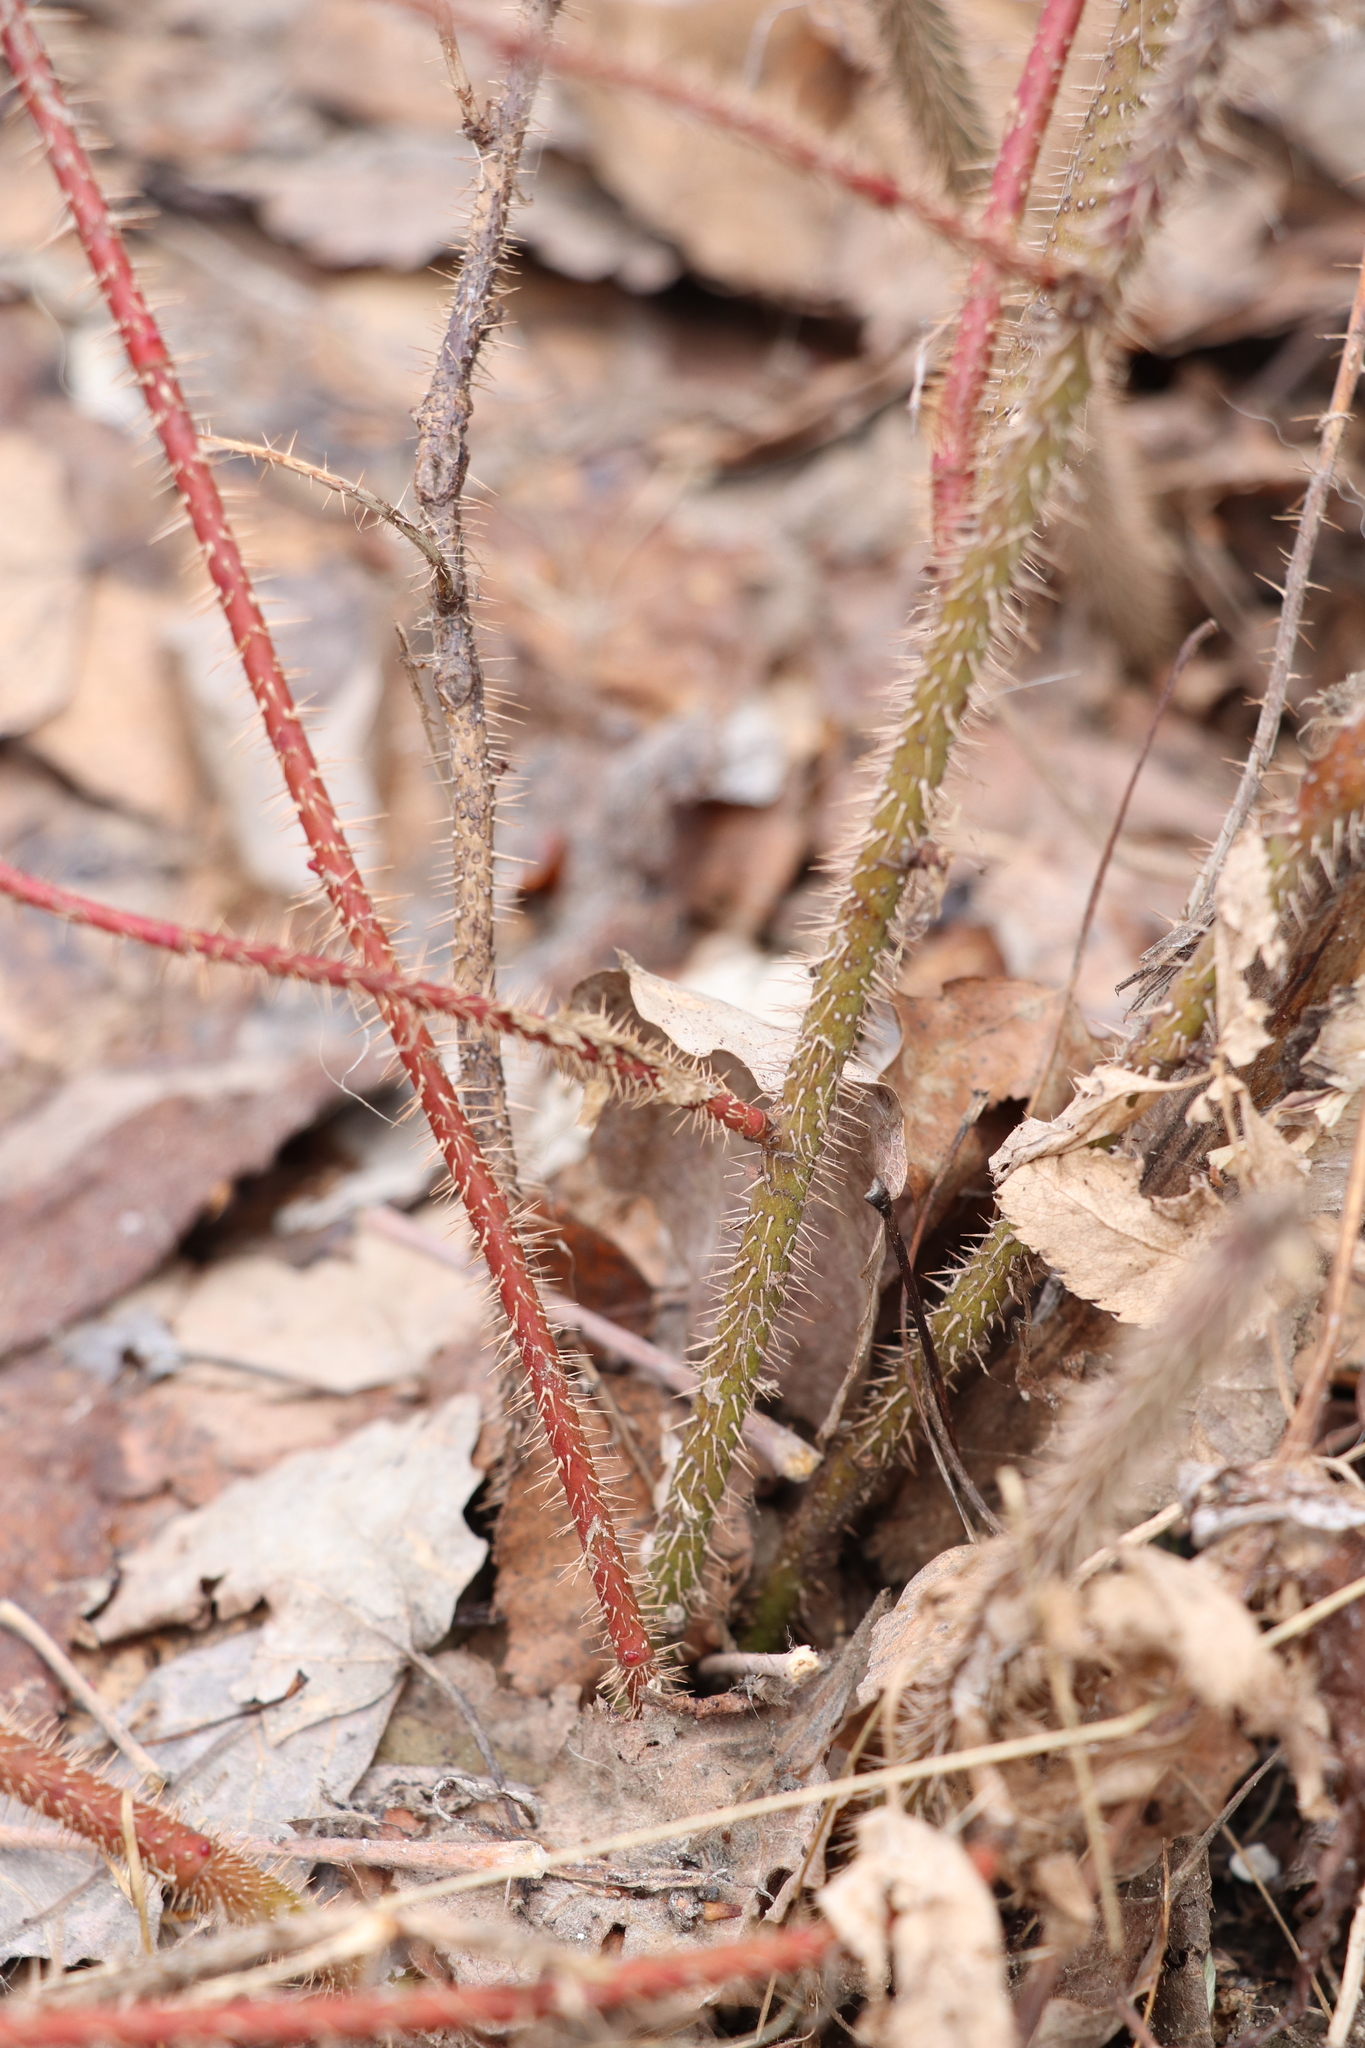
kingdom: Plantae
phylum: Tracheophyta
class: Magnoliopsida
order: Rosales
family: Rosaceae
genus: Rosa
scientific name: Rosa acicularis
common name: Prickly rose
